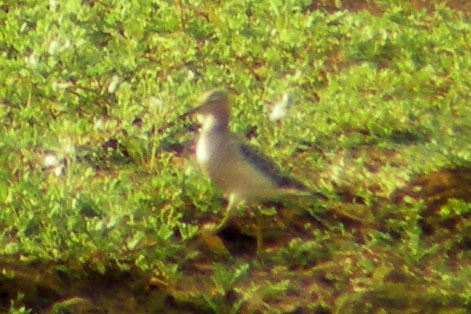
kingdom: Animalia
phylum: Chordata
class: Aves
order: Charadriiformes
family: Scolopacidae
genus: Calidris
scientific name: Calidris subruficollis
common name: Buff-breasted sandpiper
